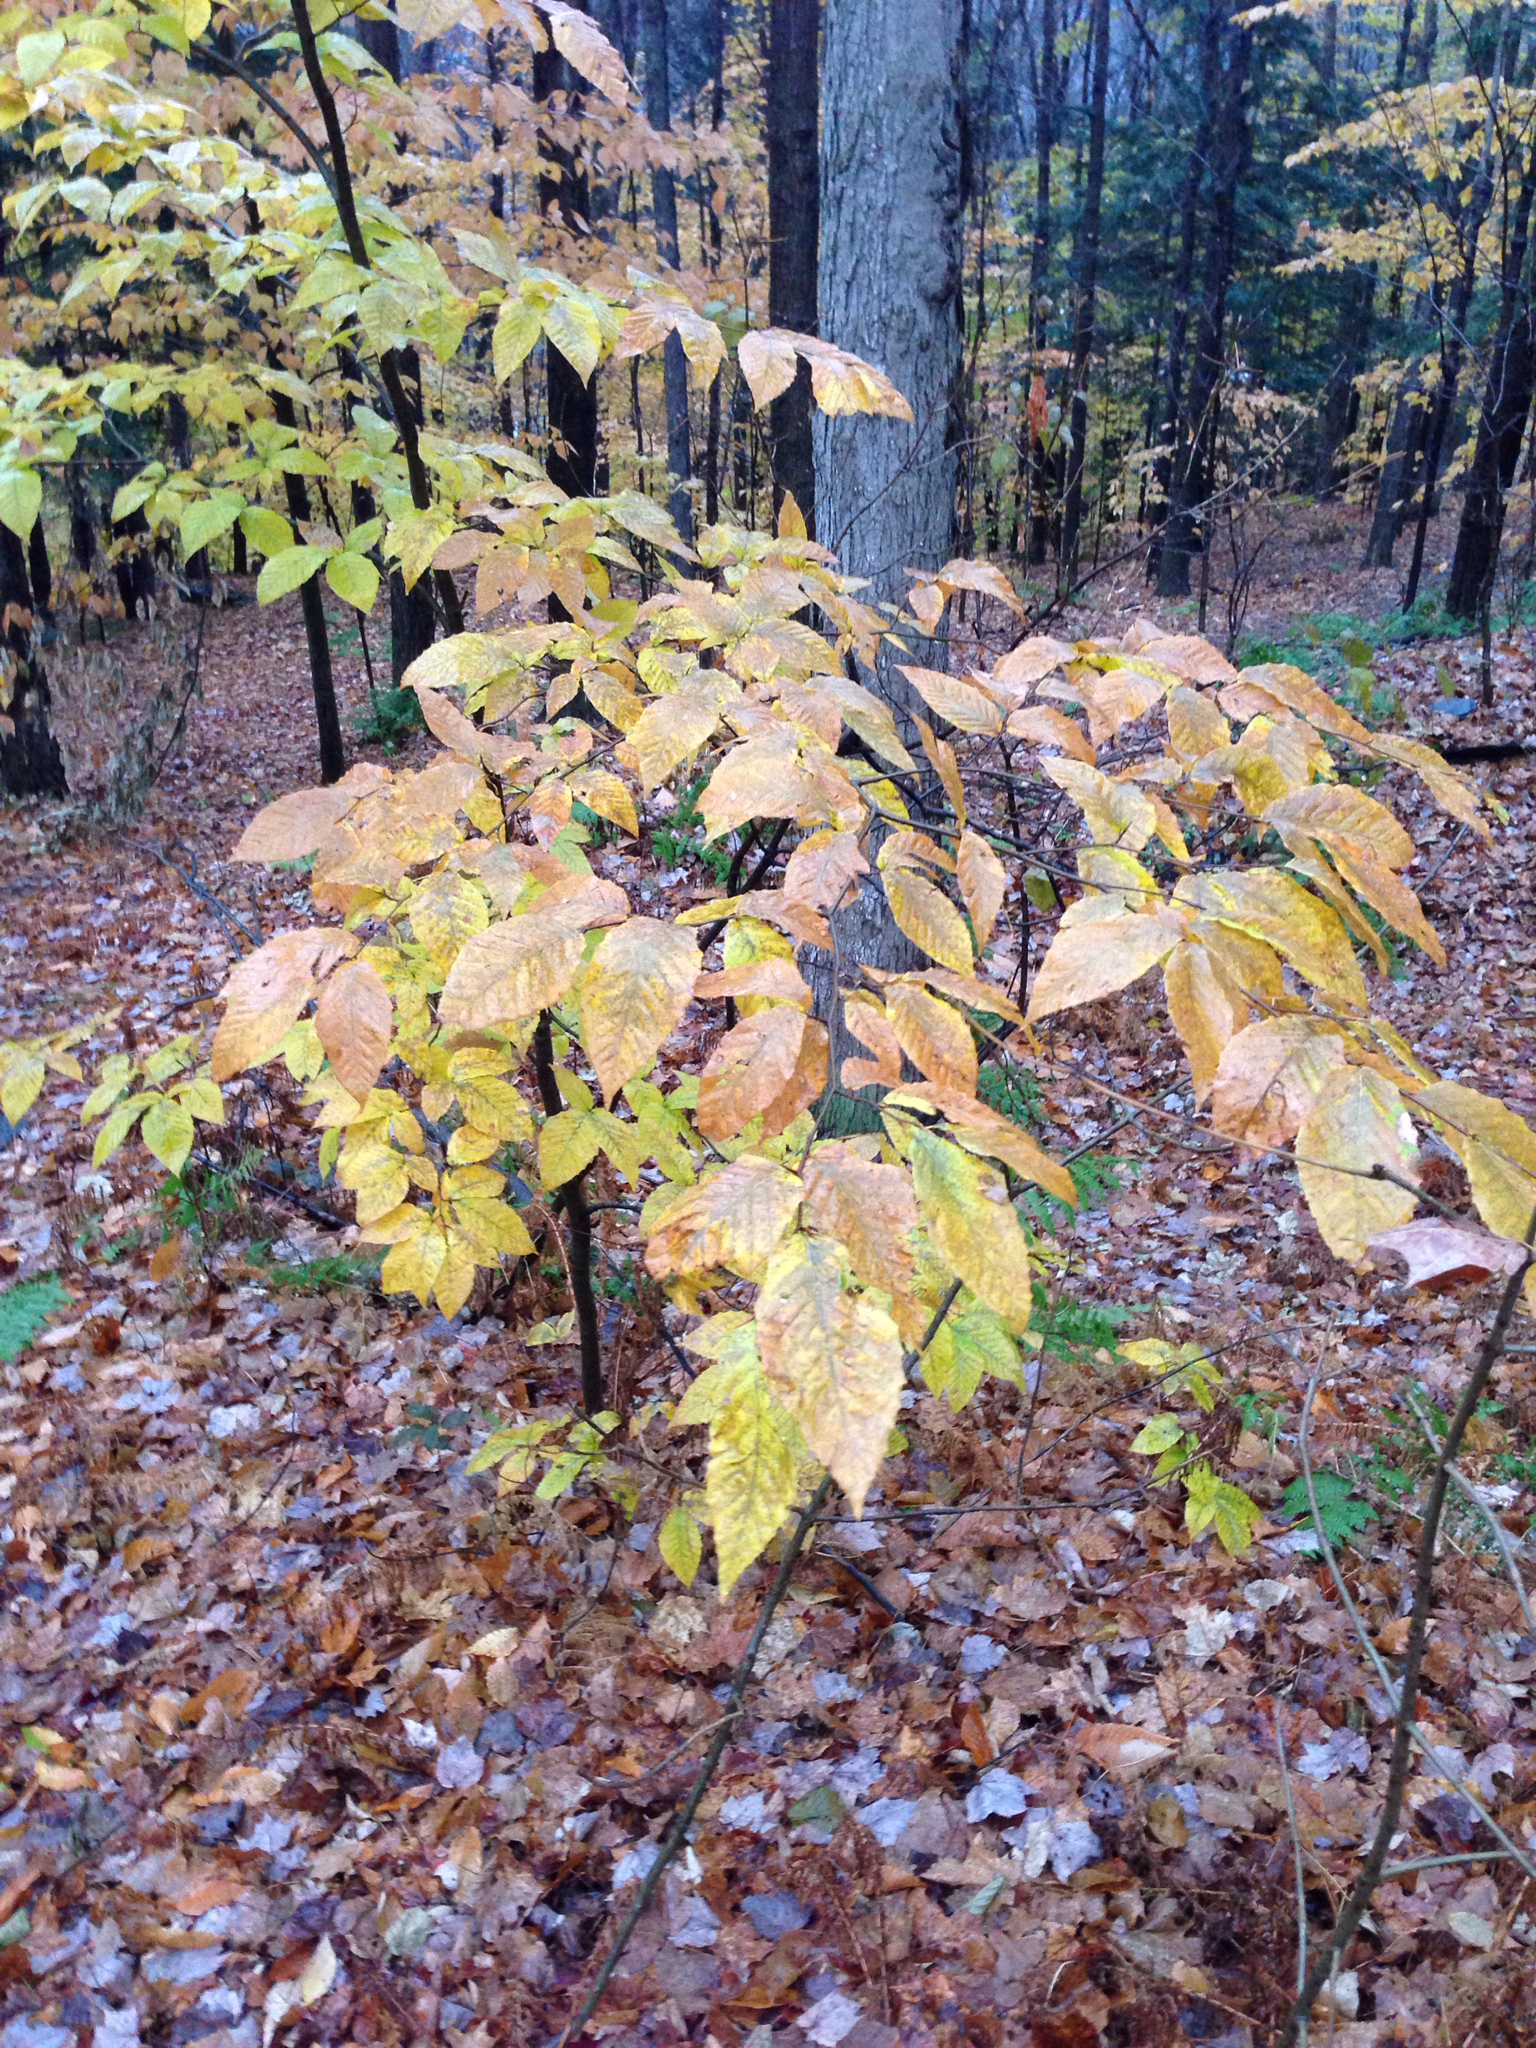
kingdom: Plantae
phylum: Tracheophyta
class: Magnoliopsida
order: Fagales
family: Fagaceae
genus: Fagus
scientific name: Fagus grandifolia
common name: American beech
